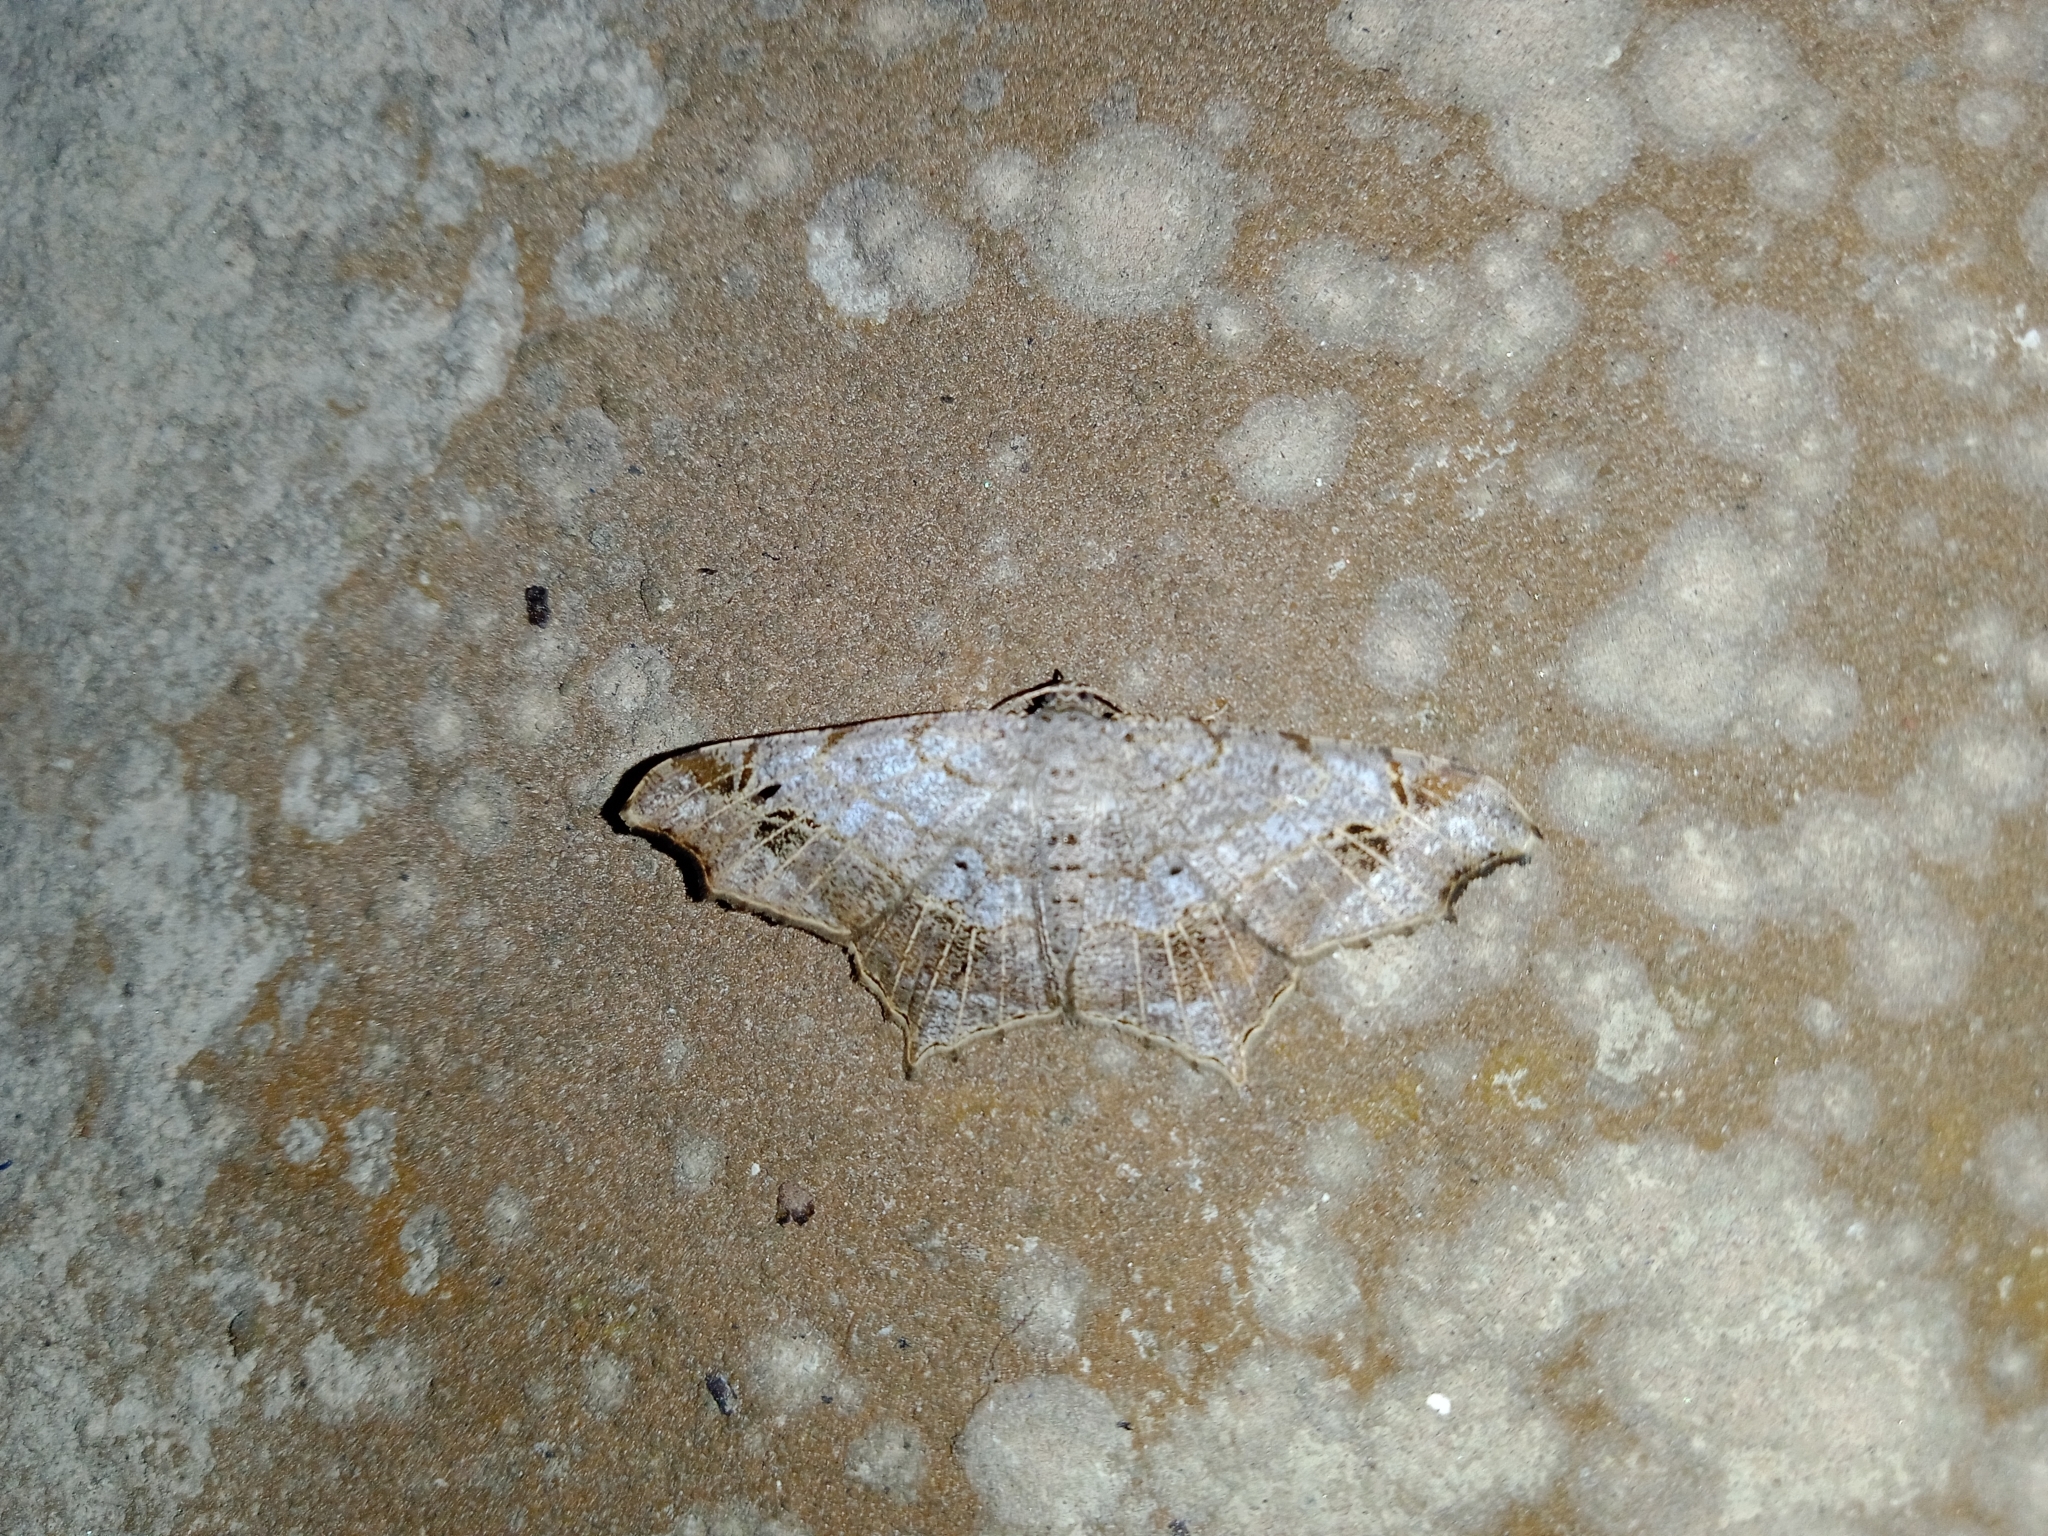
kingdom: Animalia
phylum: Arthropoda
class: Insecta
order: Lepidoptera
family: Geometridae
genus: Chiasmia
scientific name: Chiasmia emersaria
